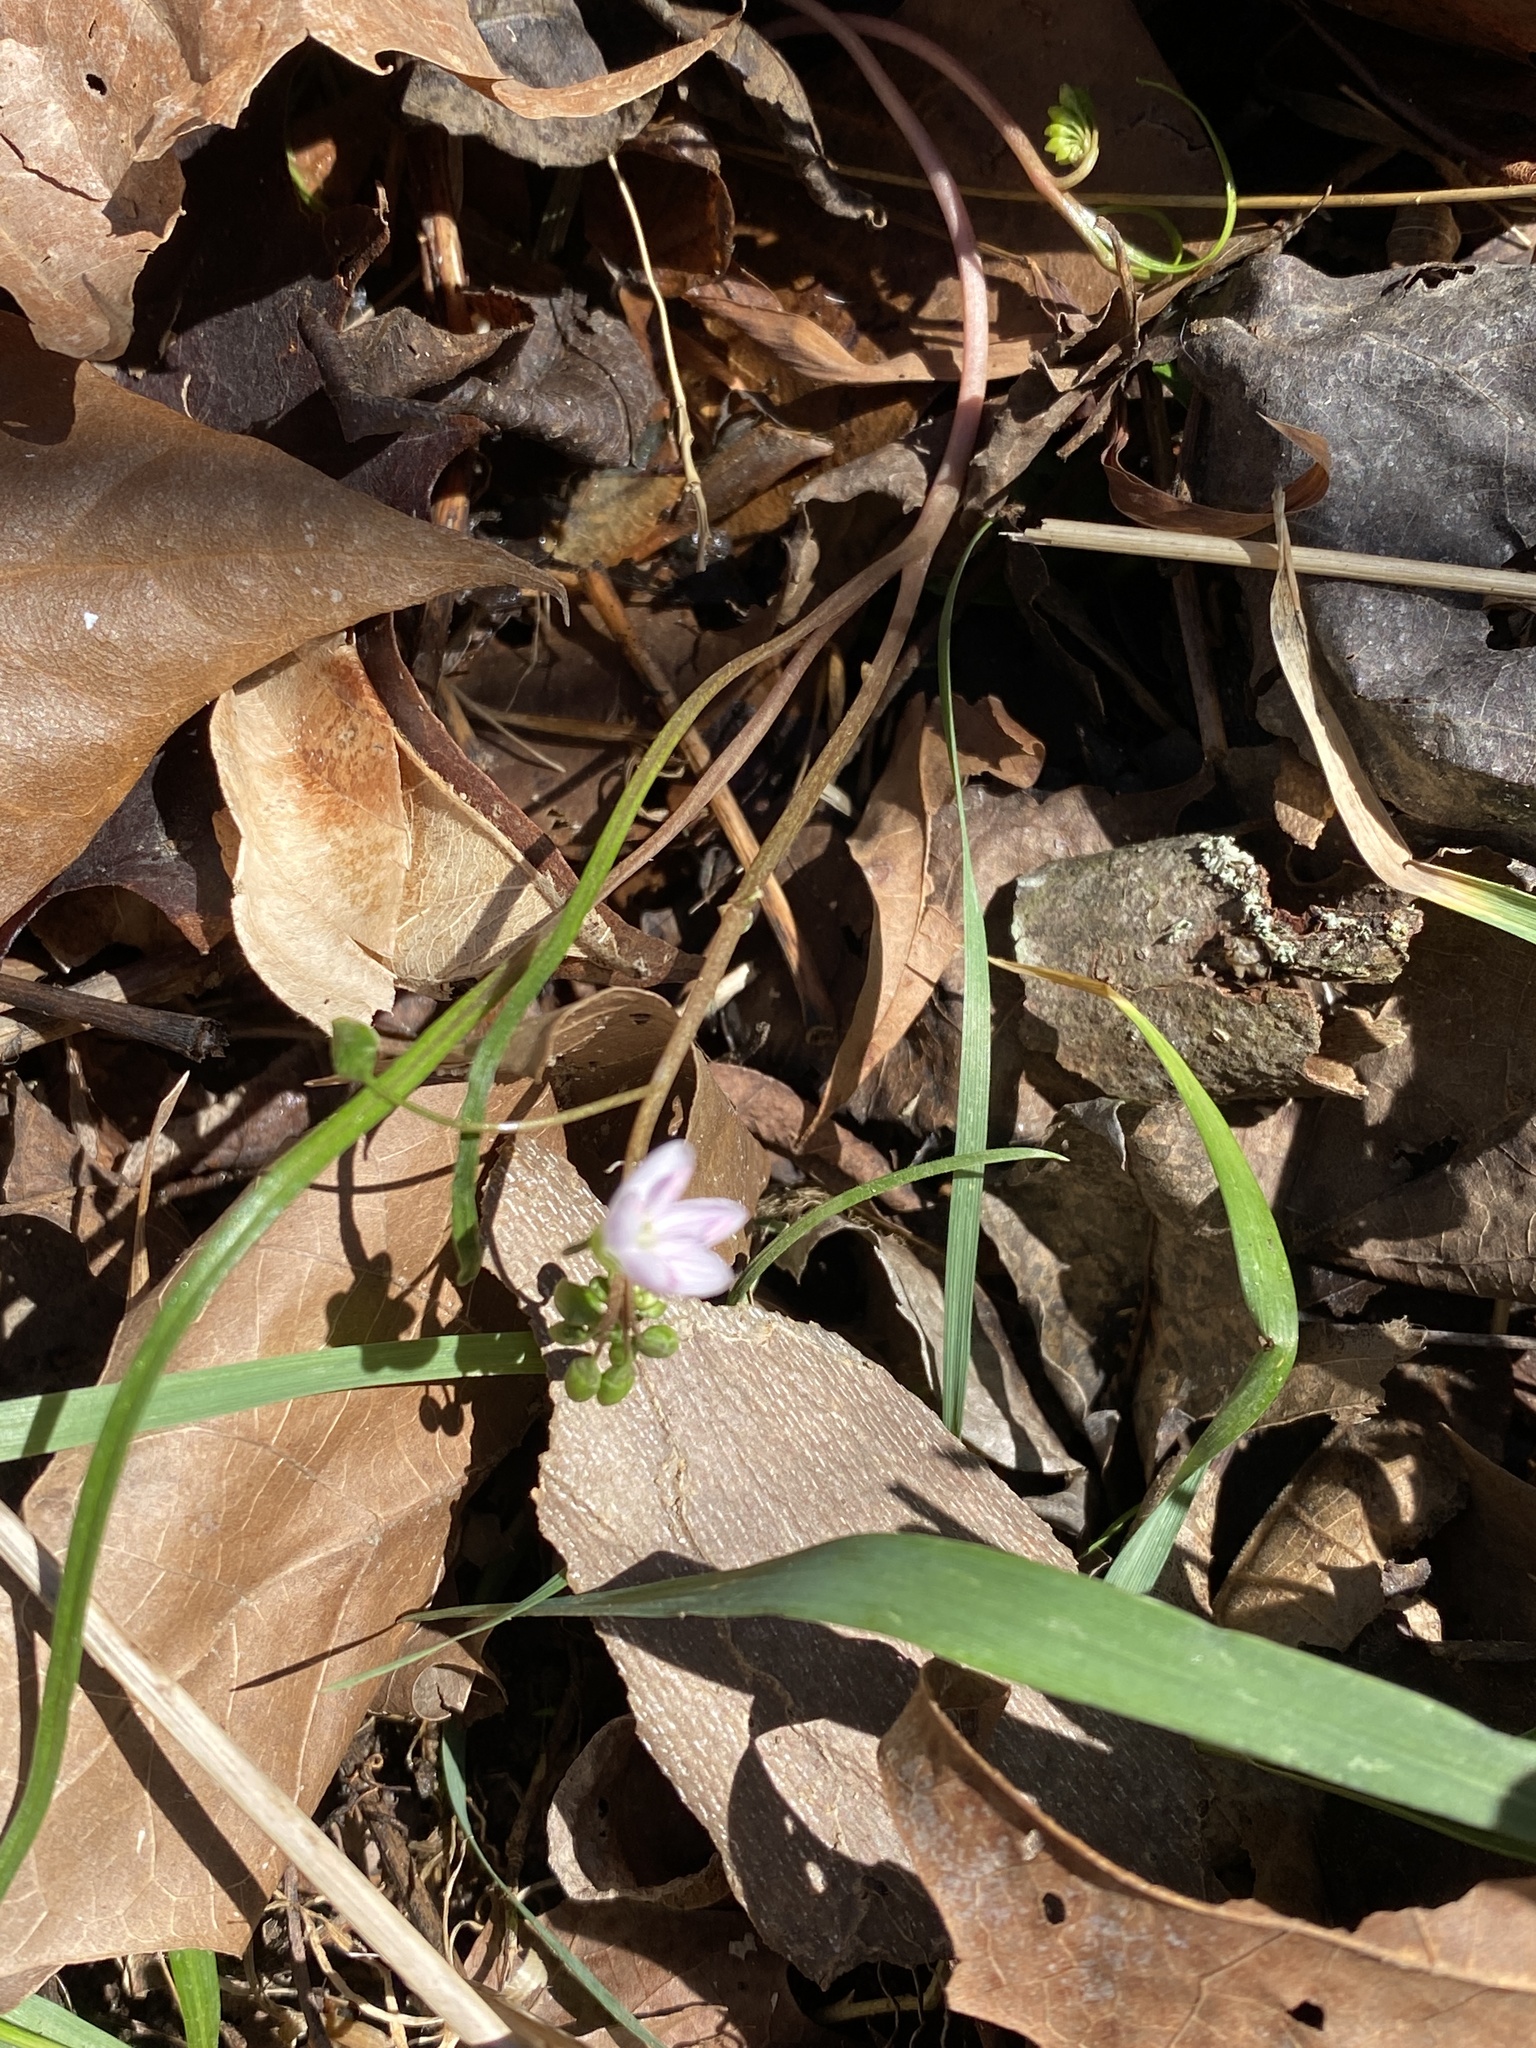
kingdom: Plantae
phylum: Tracheophyta
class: Magnoliopsida
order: Caryophyllales
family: Montiaceae
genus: Claytonia
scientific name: Claytonia virginica
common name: Virginia springbeauty
